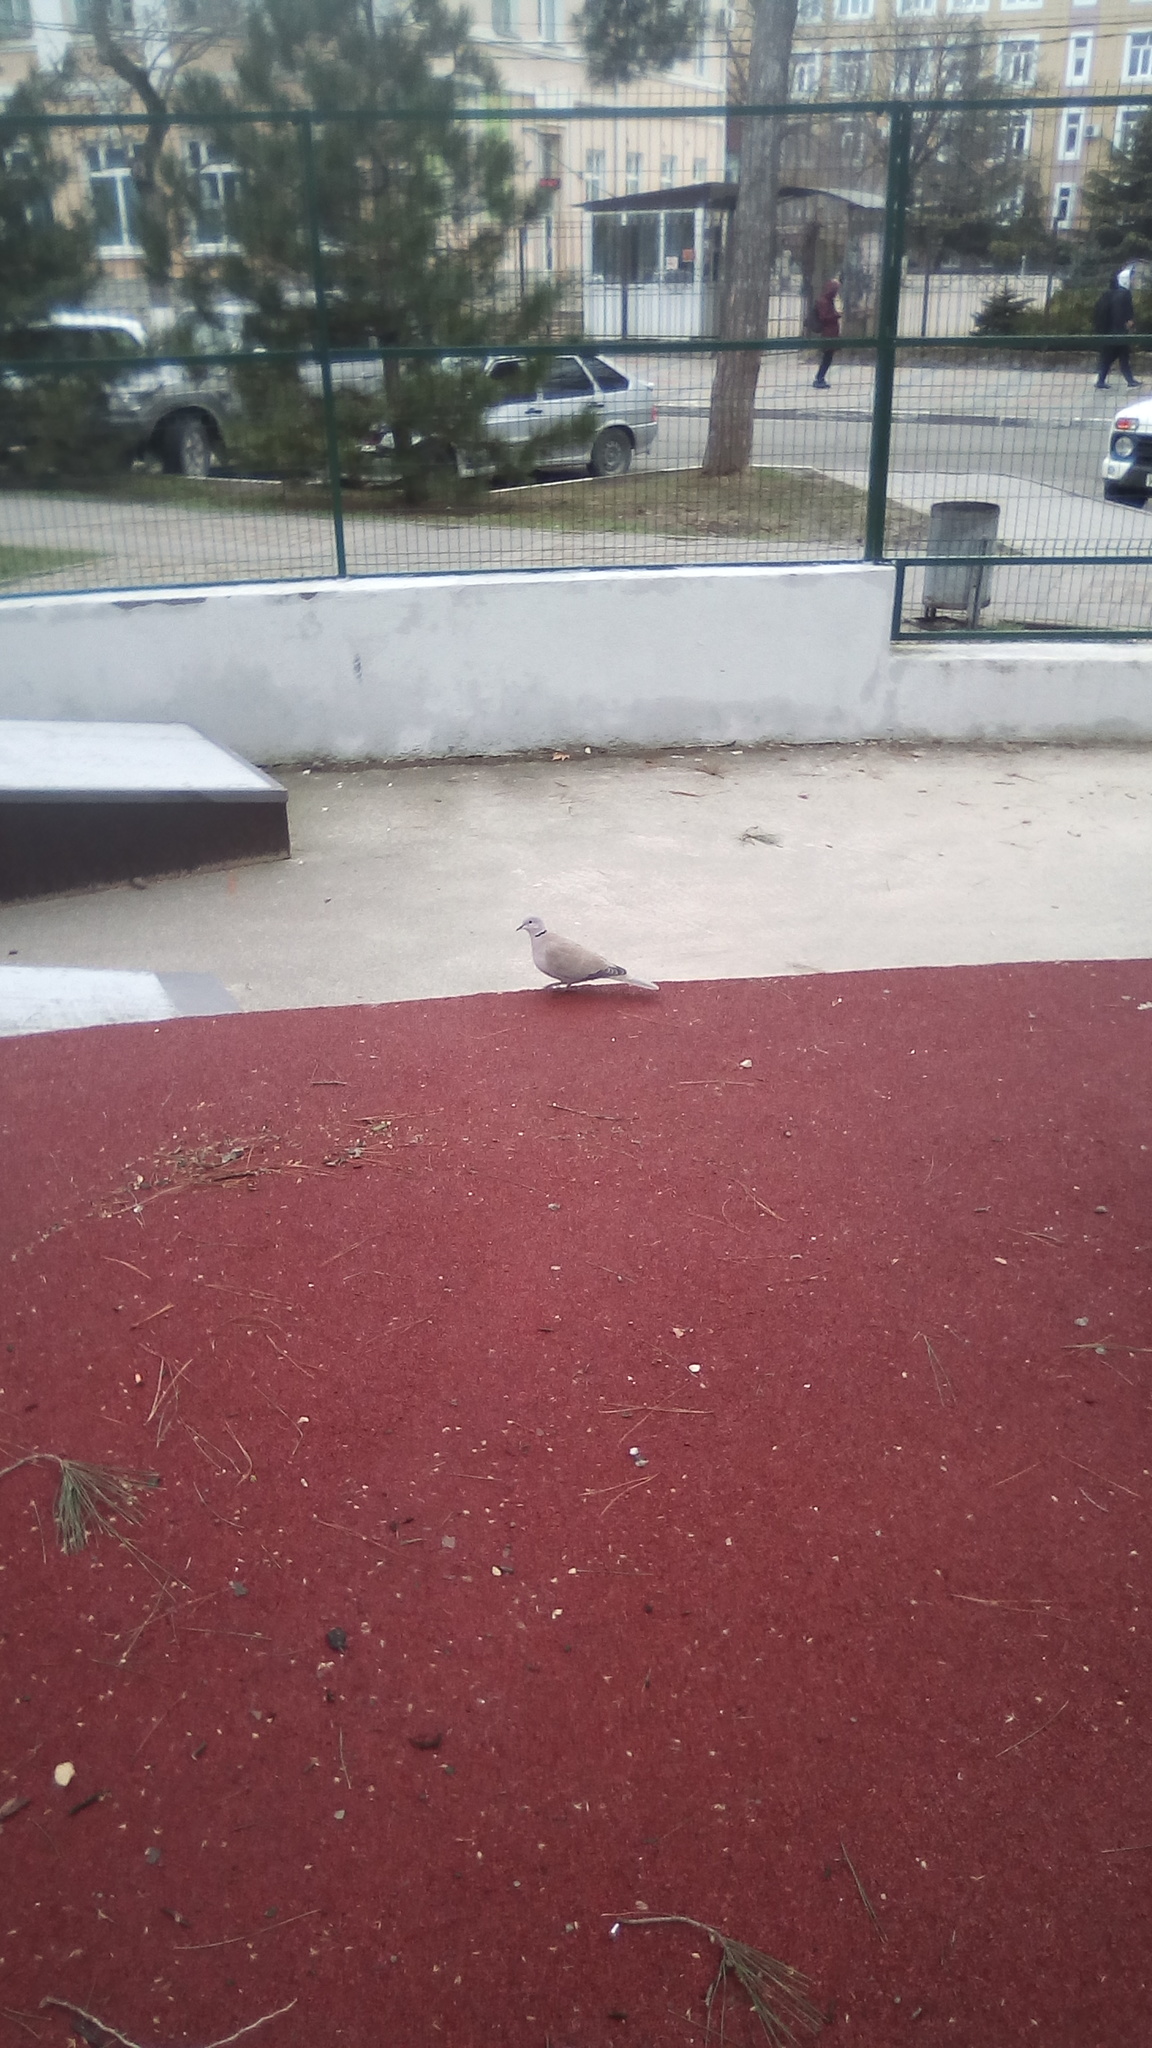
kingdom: Animalia
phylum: Chordata
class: Aves
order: Columbiformes
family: Columbidae
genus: Streptopelia
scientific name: Streptopelia decaocto
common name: Eurasian collared dove
